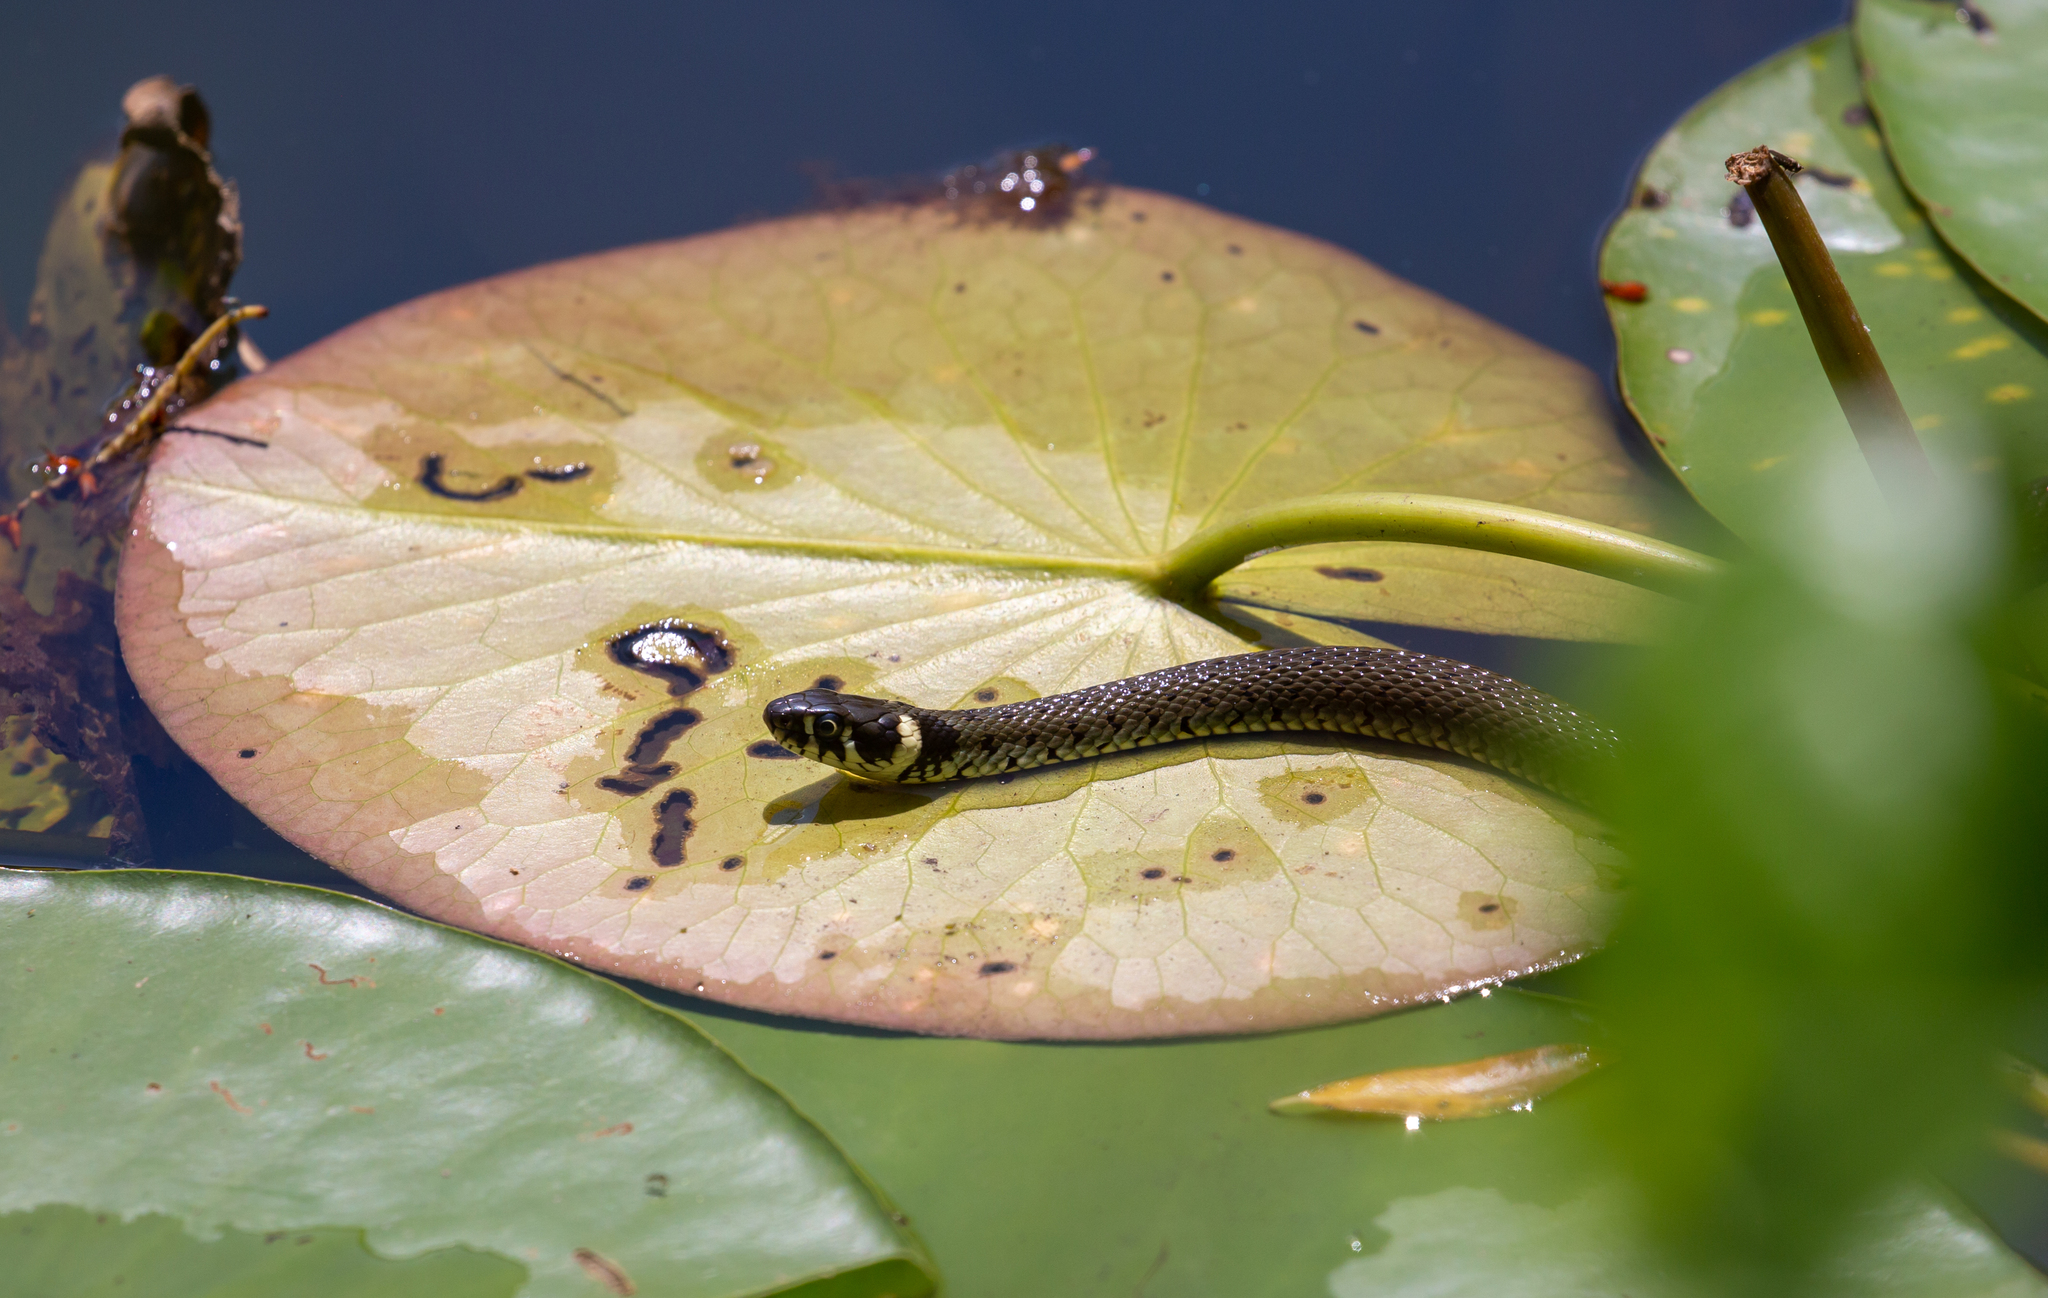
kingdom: Animalia
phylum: Chordata
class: Squamata
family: Colubridae
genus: Natrix
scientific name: Natrix natrix
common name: Grass snake
